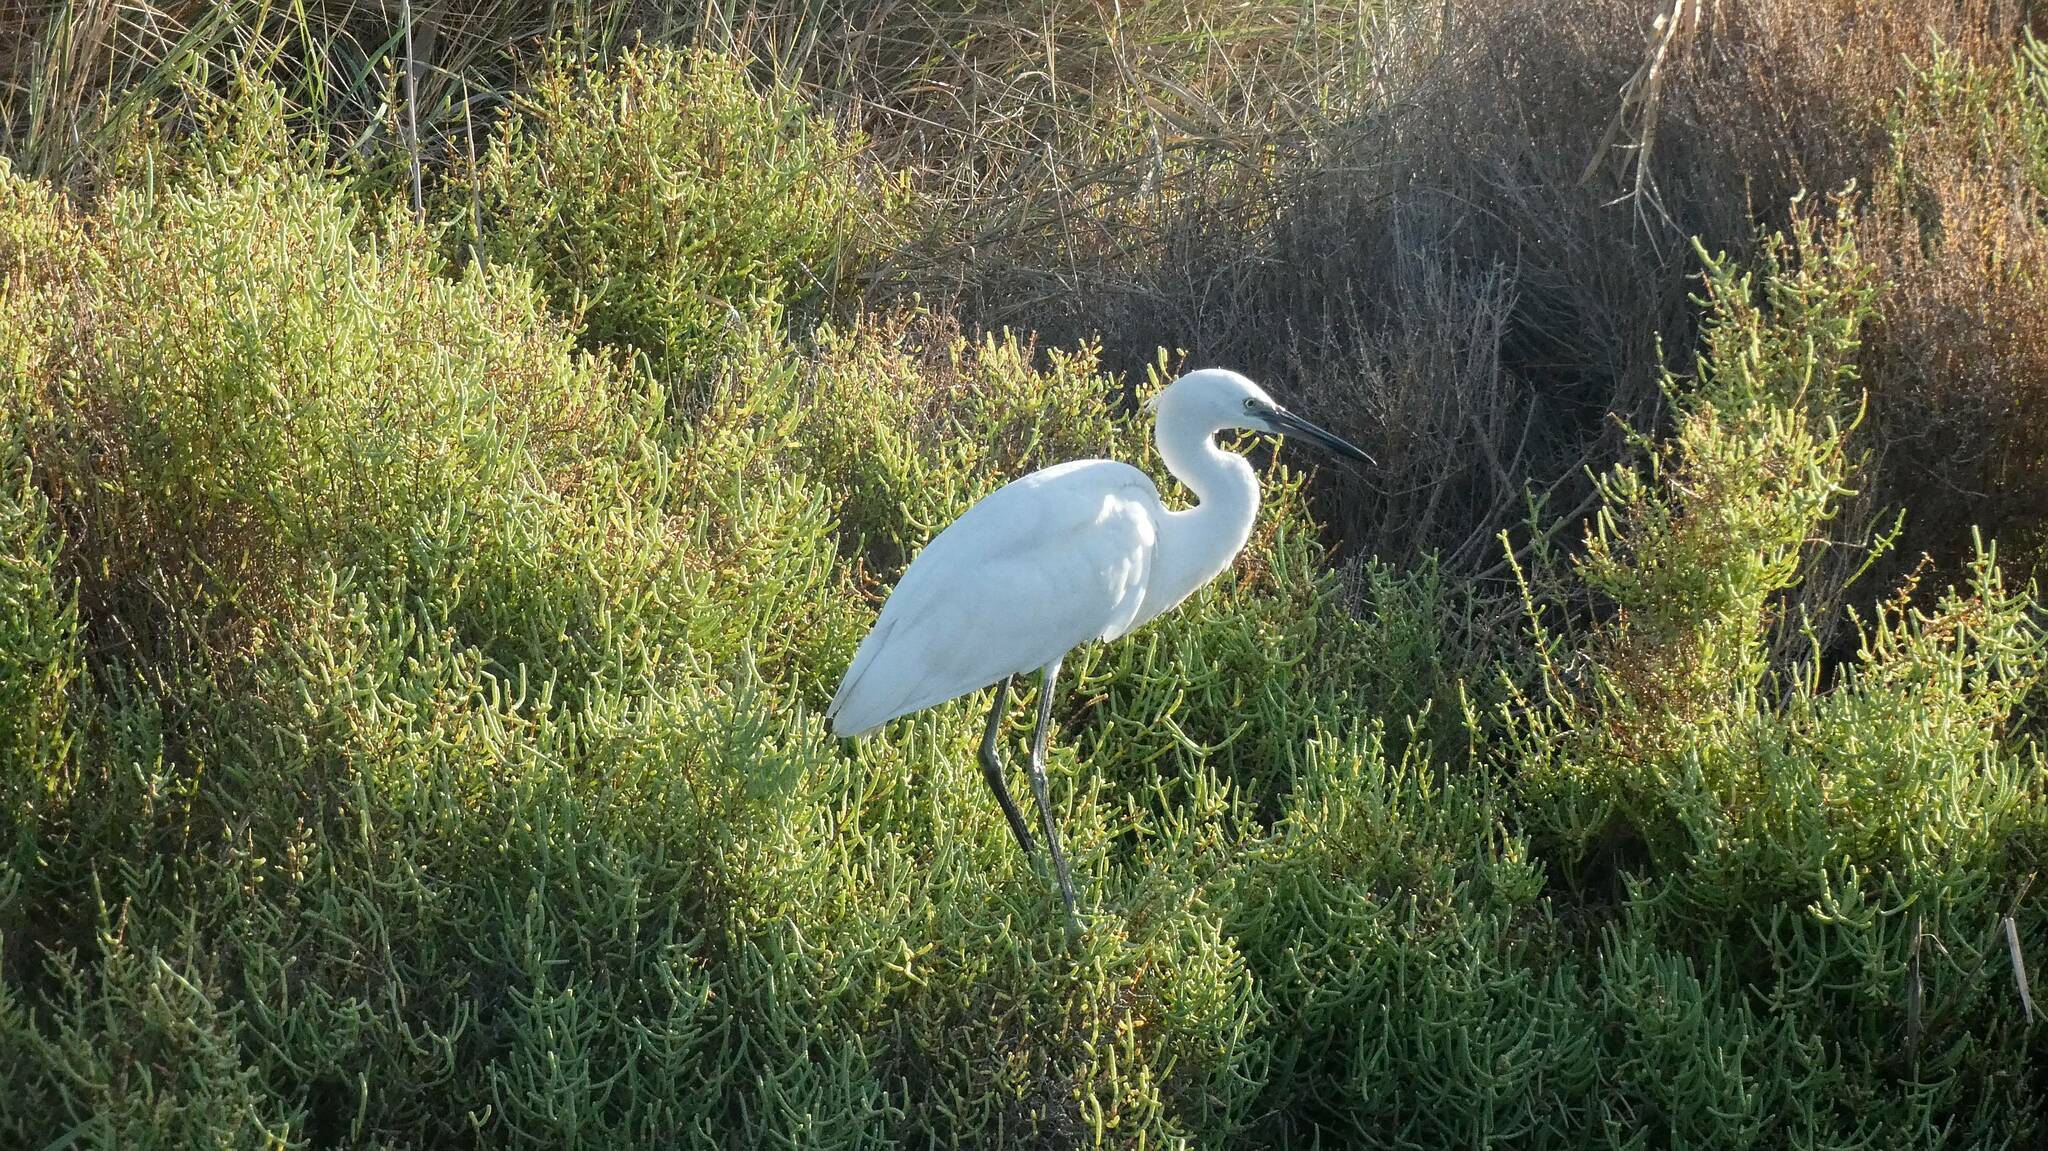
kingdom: Animalia
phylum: Chordata
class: Aves
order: Pelecaniformes
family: Ardeidae
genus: Egretta
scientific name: Egretta garzetta
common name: Little egret
